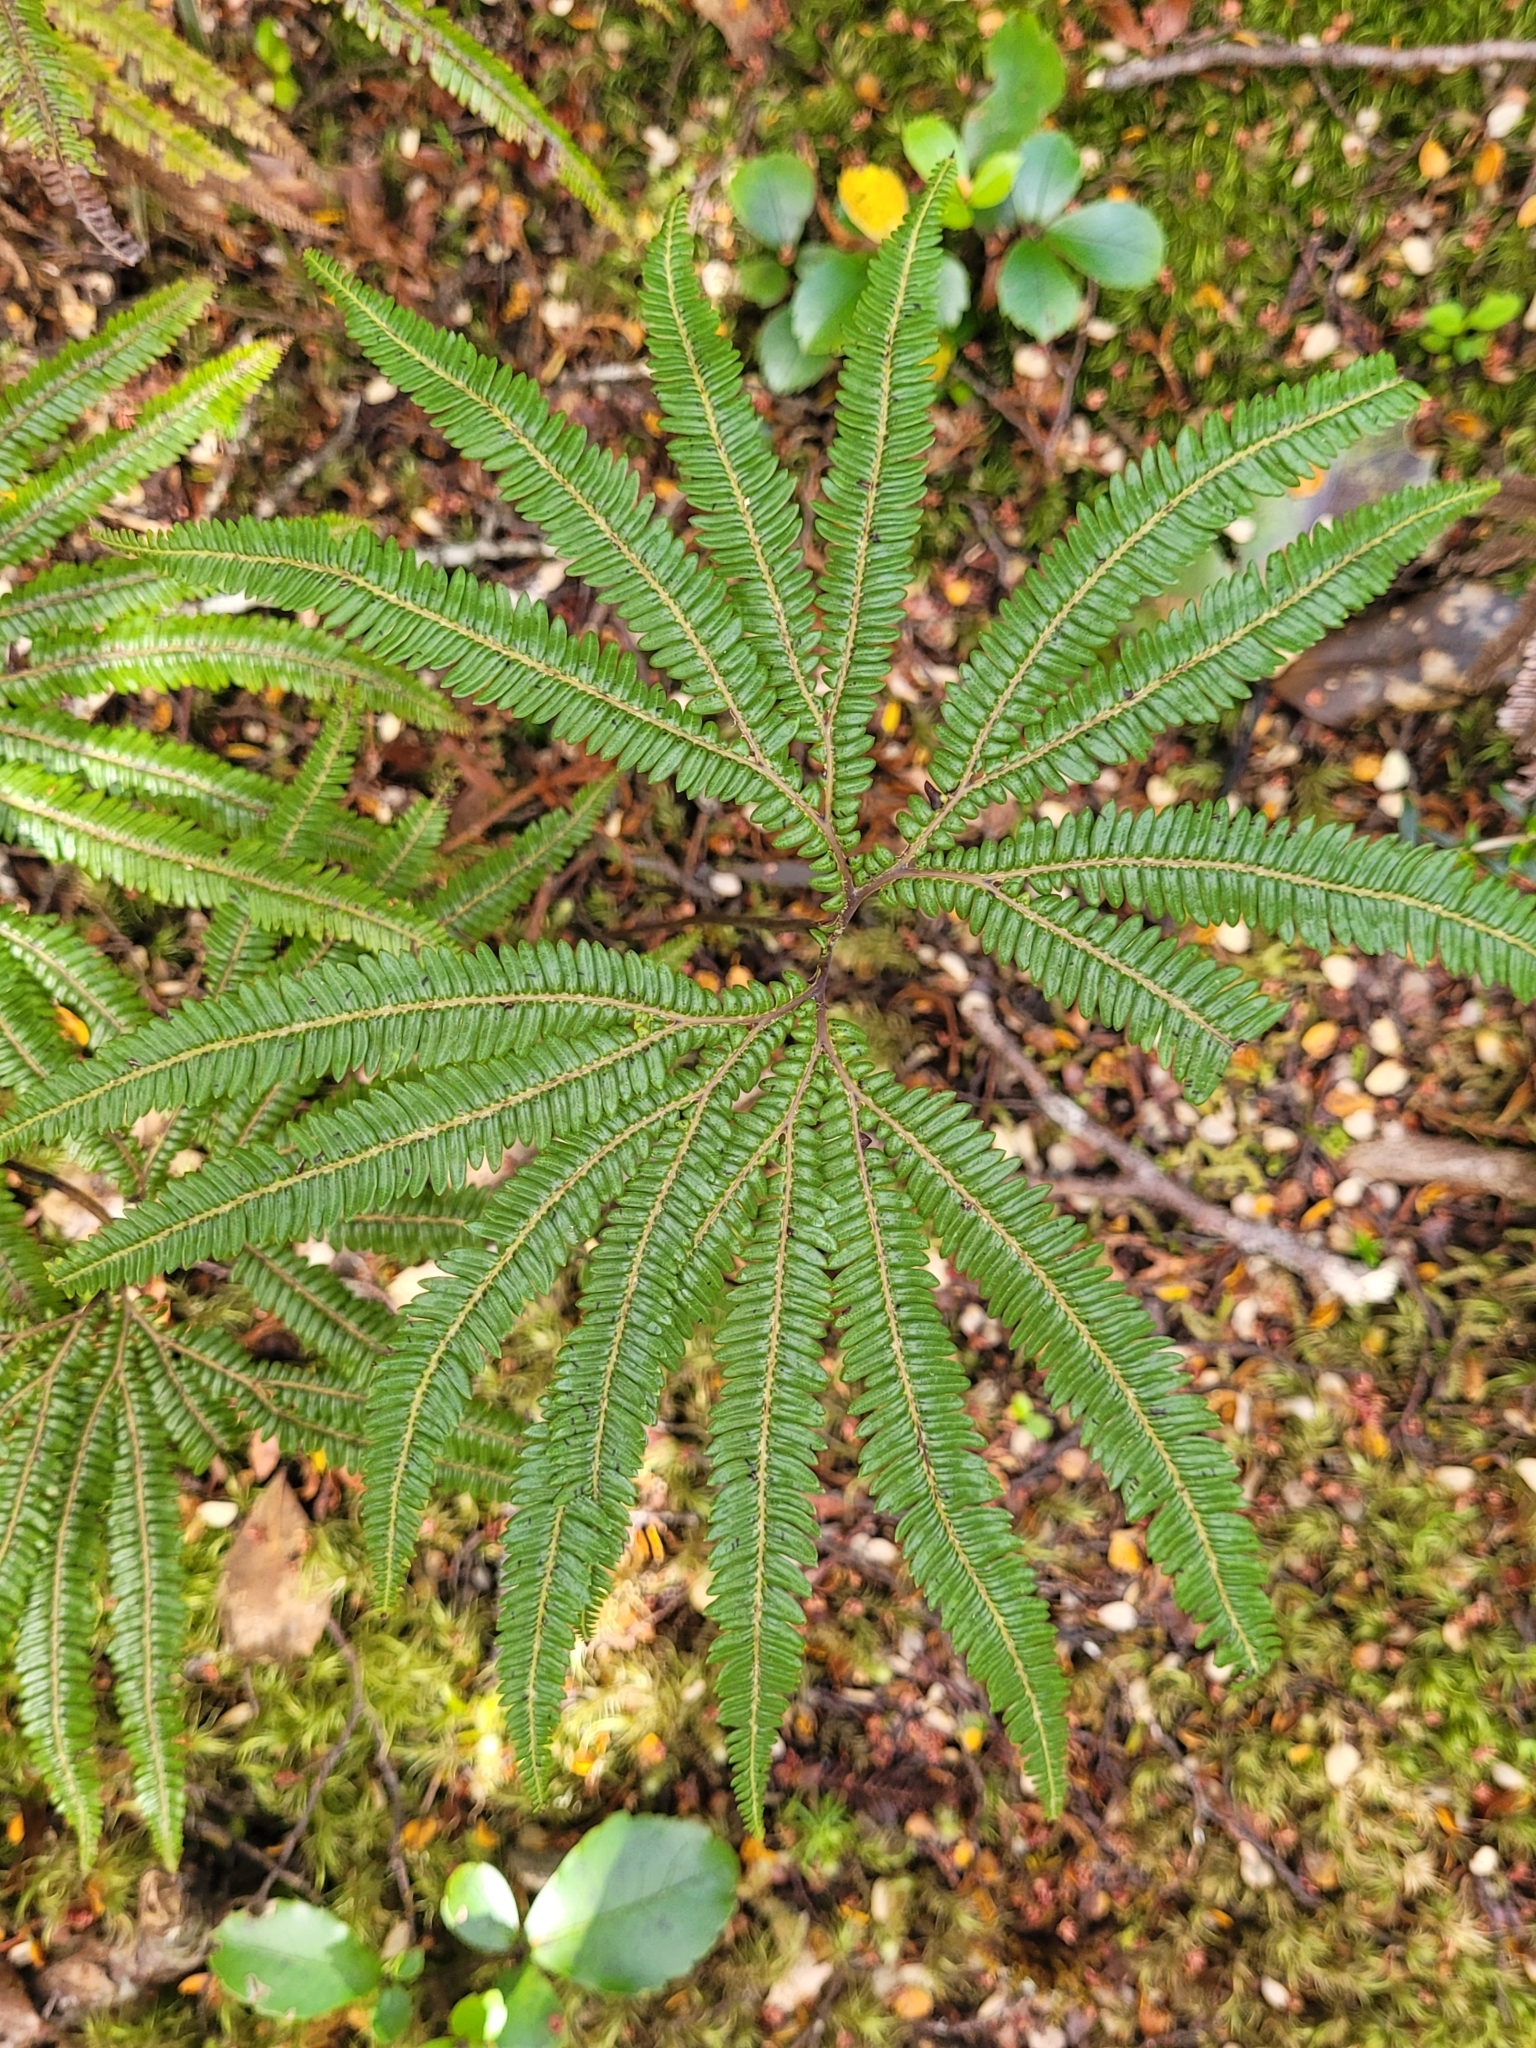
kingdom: Plantae
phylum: Tracheophyta
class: Polypodiopsida
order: Gleicheniales
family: Gleicheniaceae
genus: Sticherus
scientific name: Sticherus cunninghamii
